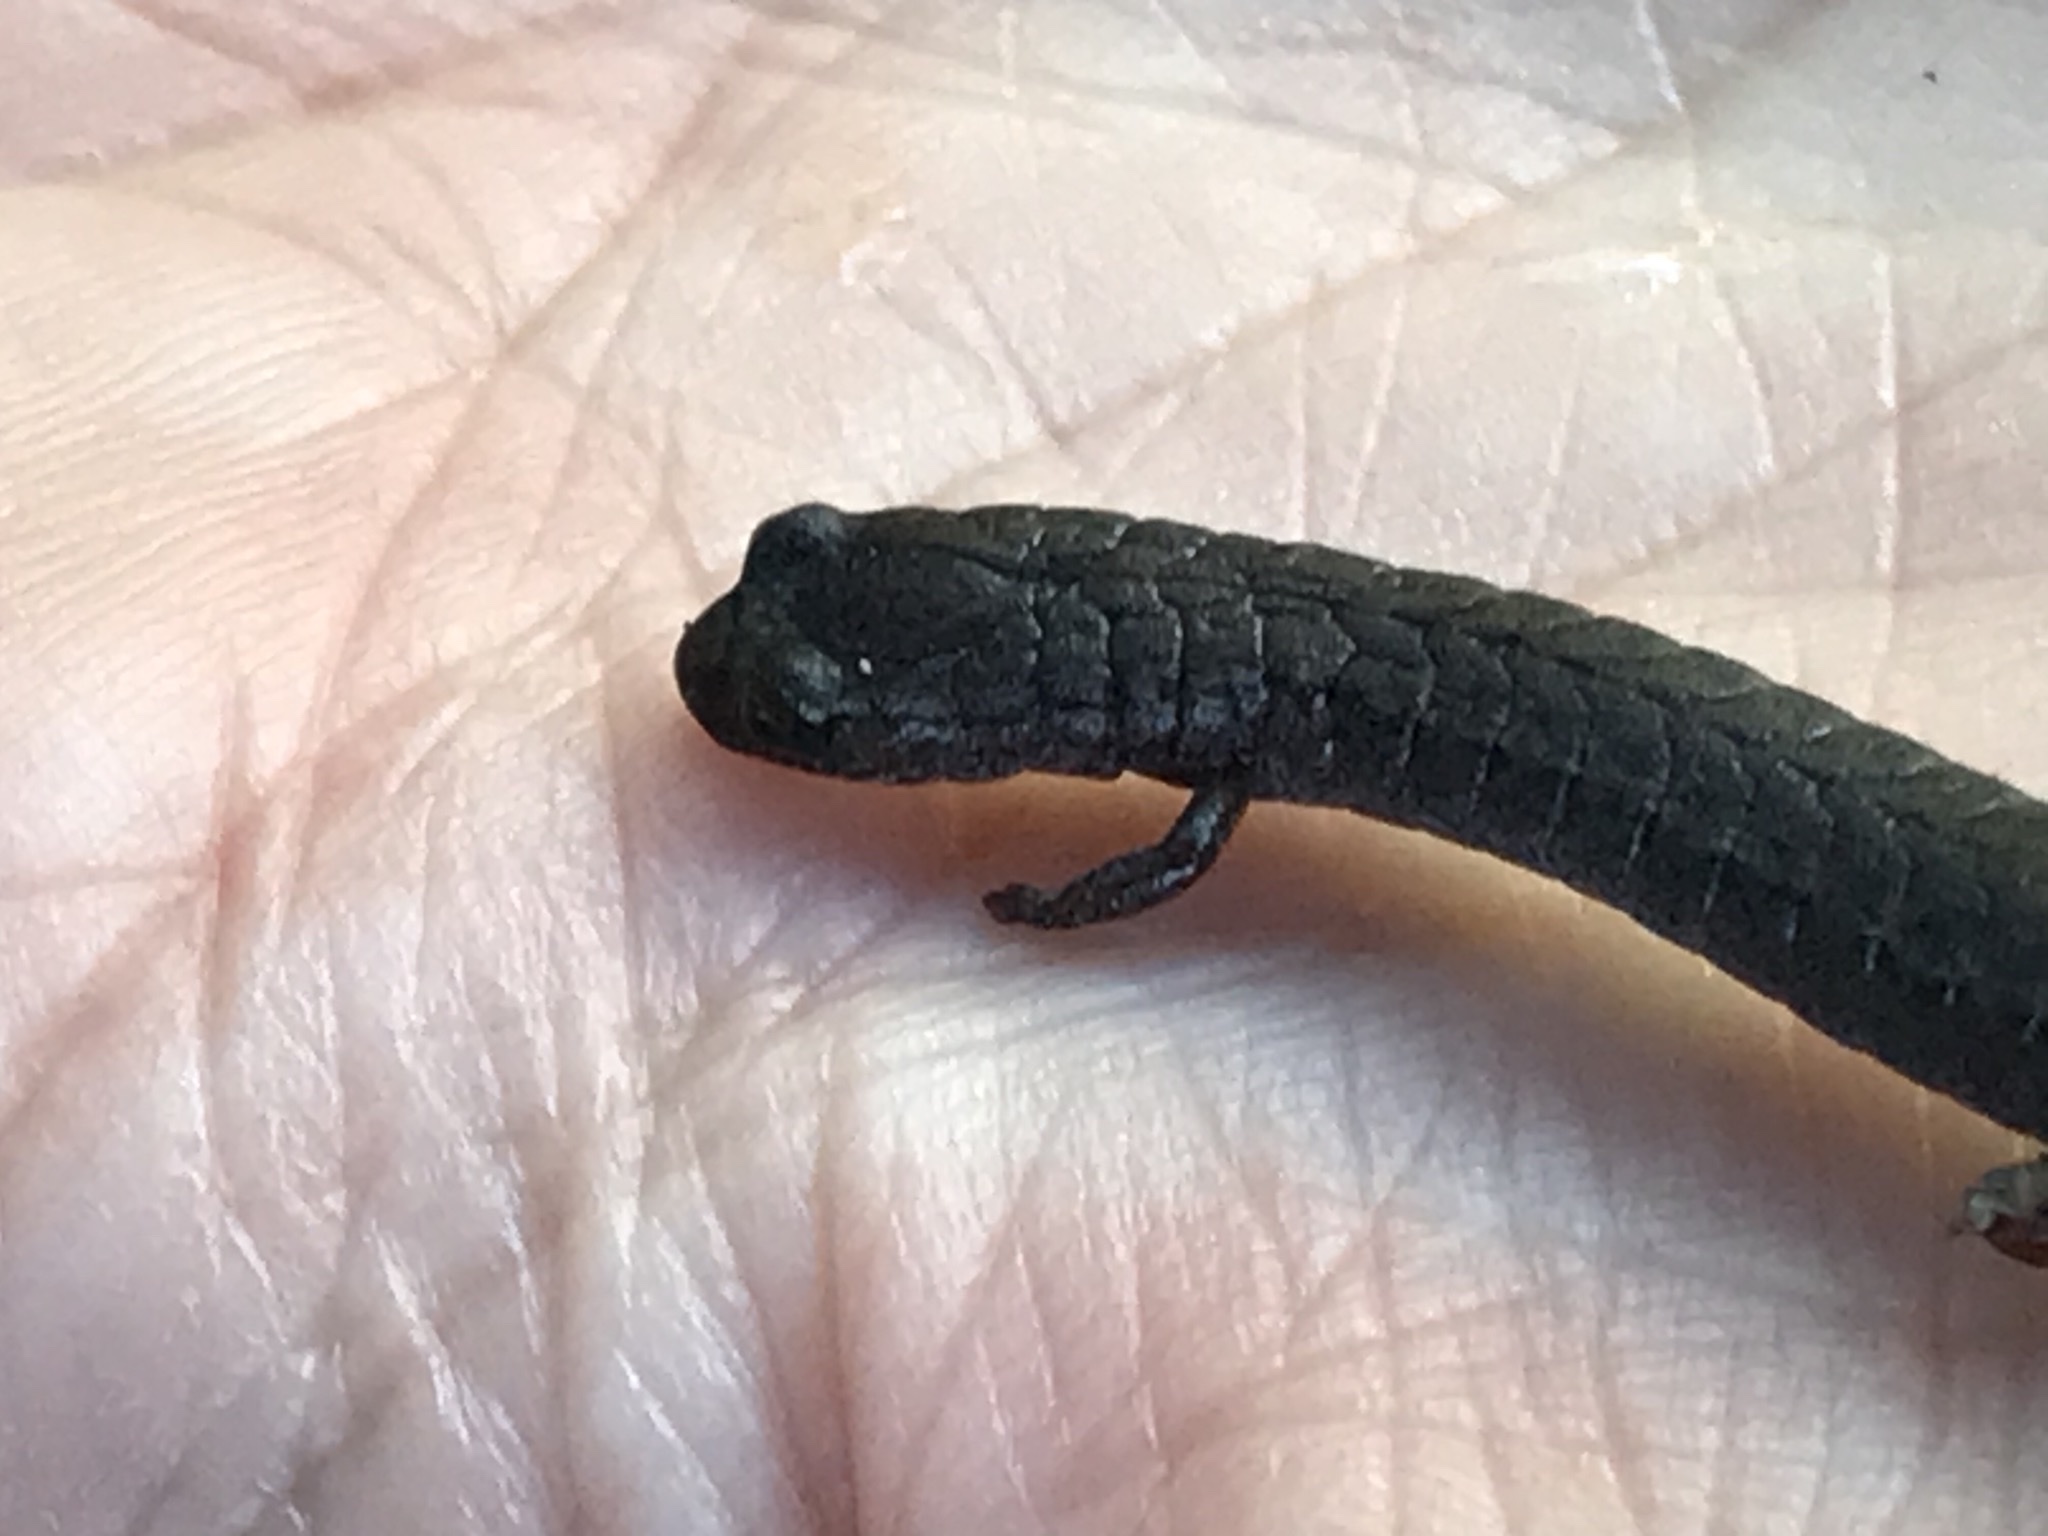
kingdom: Animalia
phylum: Chordata
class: Amphibia
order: Caudata
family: Plethodontidae
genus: Batrachoseps
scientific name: Batrachoseps attenuatus
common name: California slender salamander
